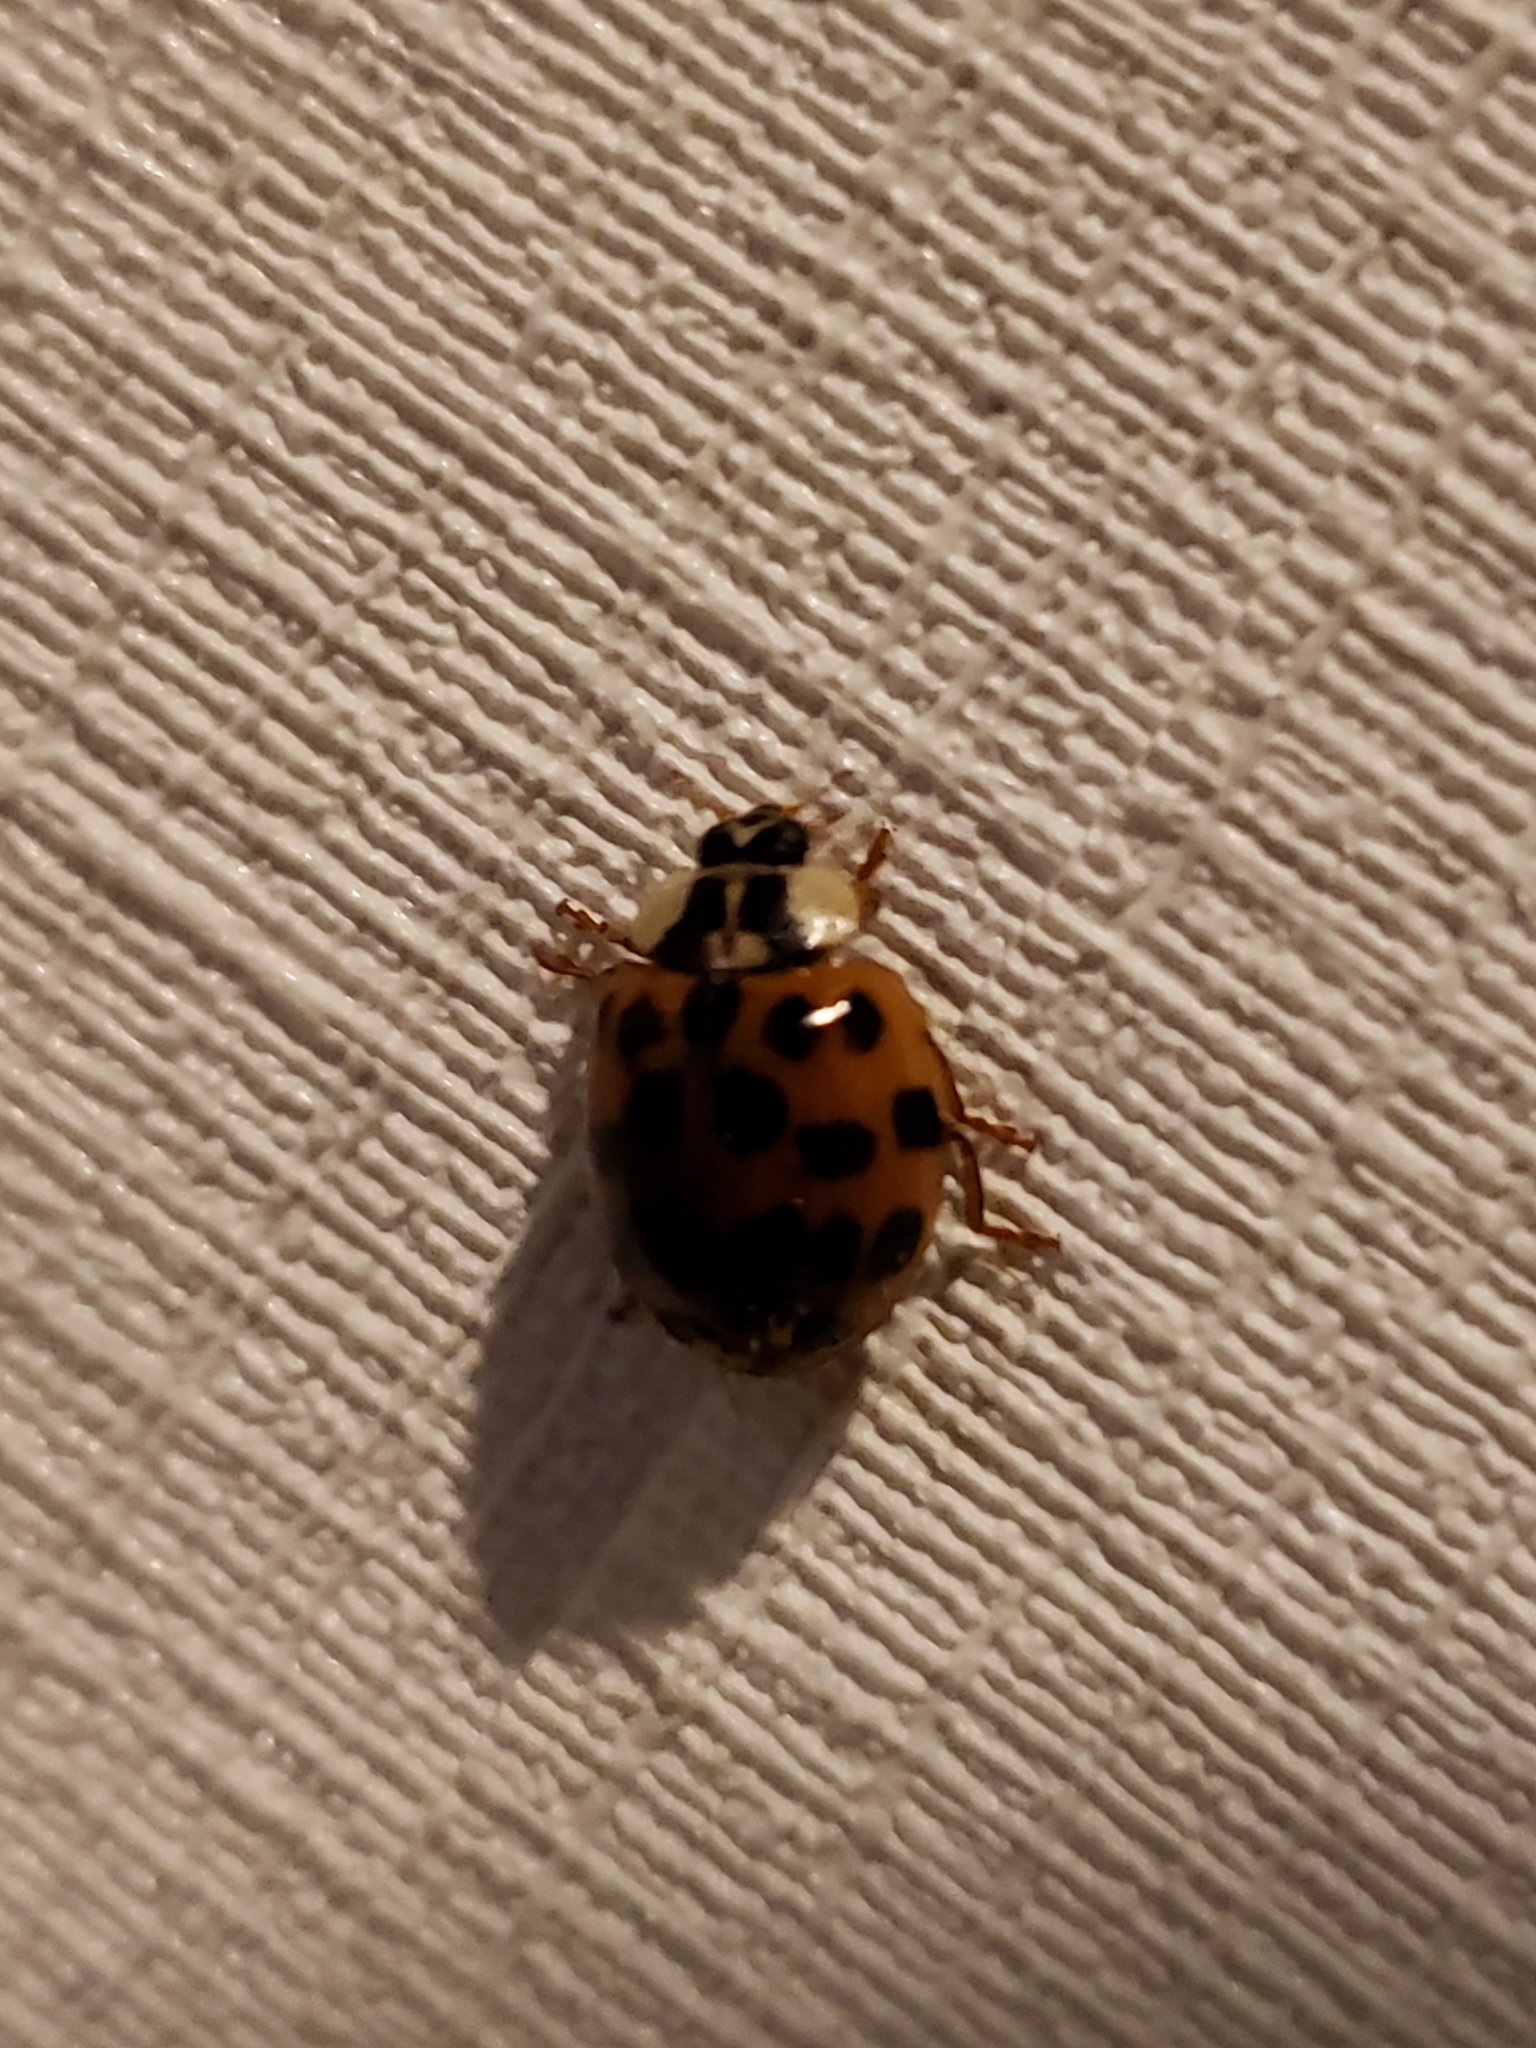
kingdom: Animalia
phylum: Arthropoda
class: Insecta
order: Coleoptera
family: Coccinellidae
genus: Harmonia
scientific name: Harmonia axyridis
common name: Harlequin ladybird
